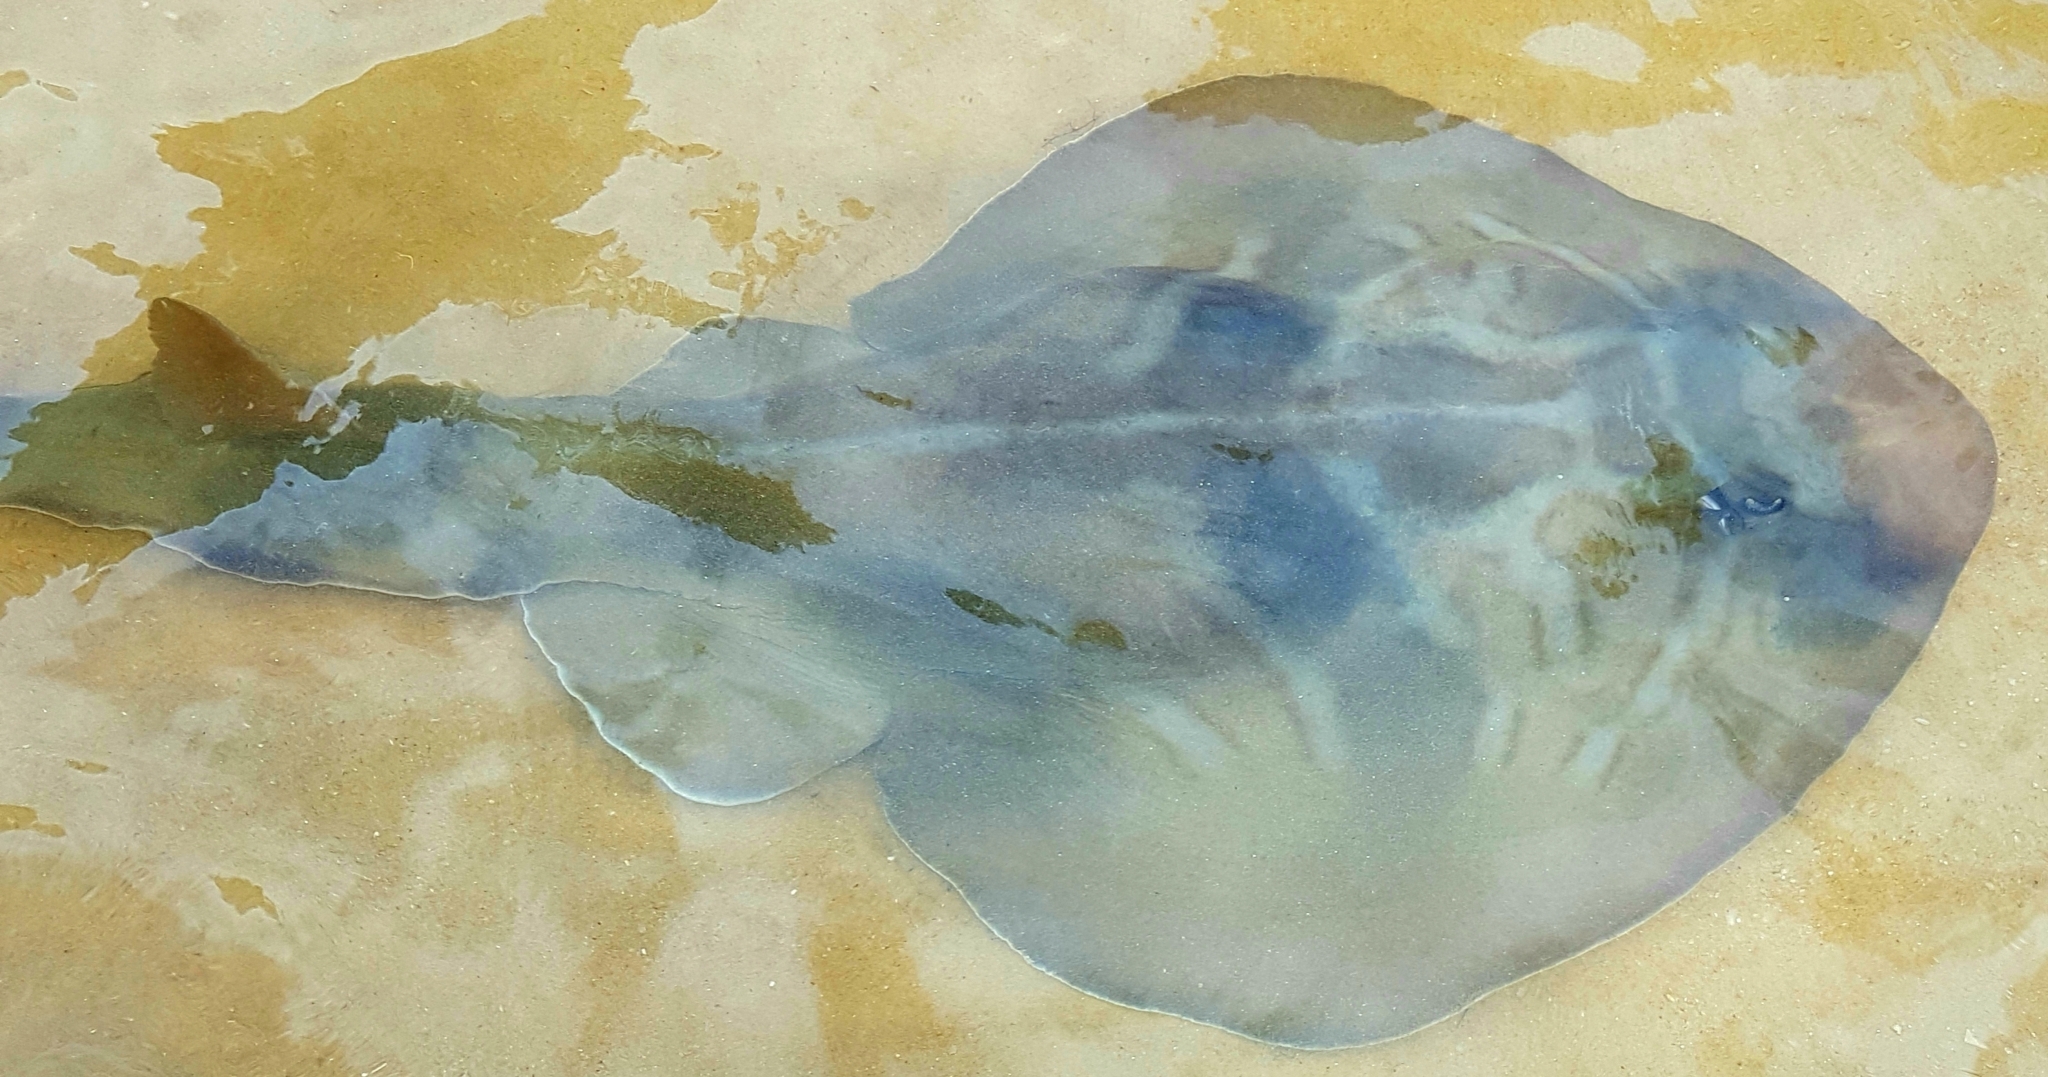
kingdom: Animalia
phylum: Chordata
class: Elasmobranchii
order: Rhinopristiformes
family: Rhinobatidae
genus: Trygonorrhina
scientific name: Trygonorrhina fasciata
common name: Southern fiddler
